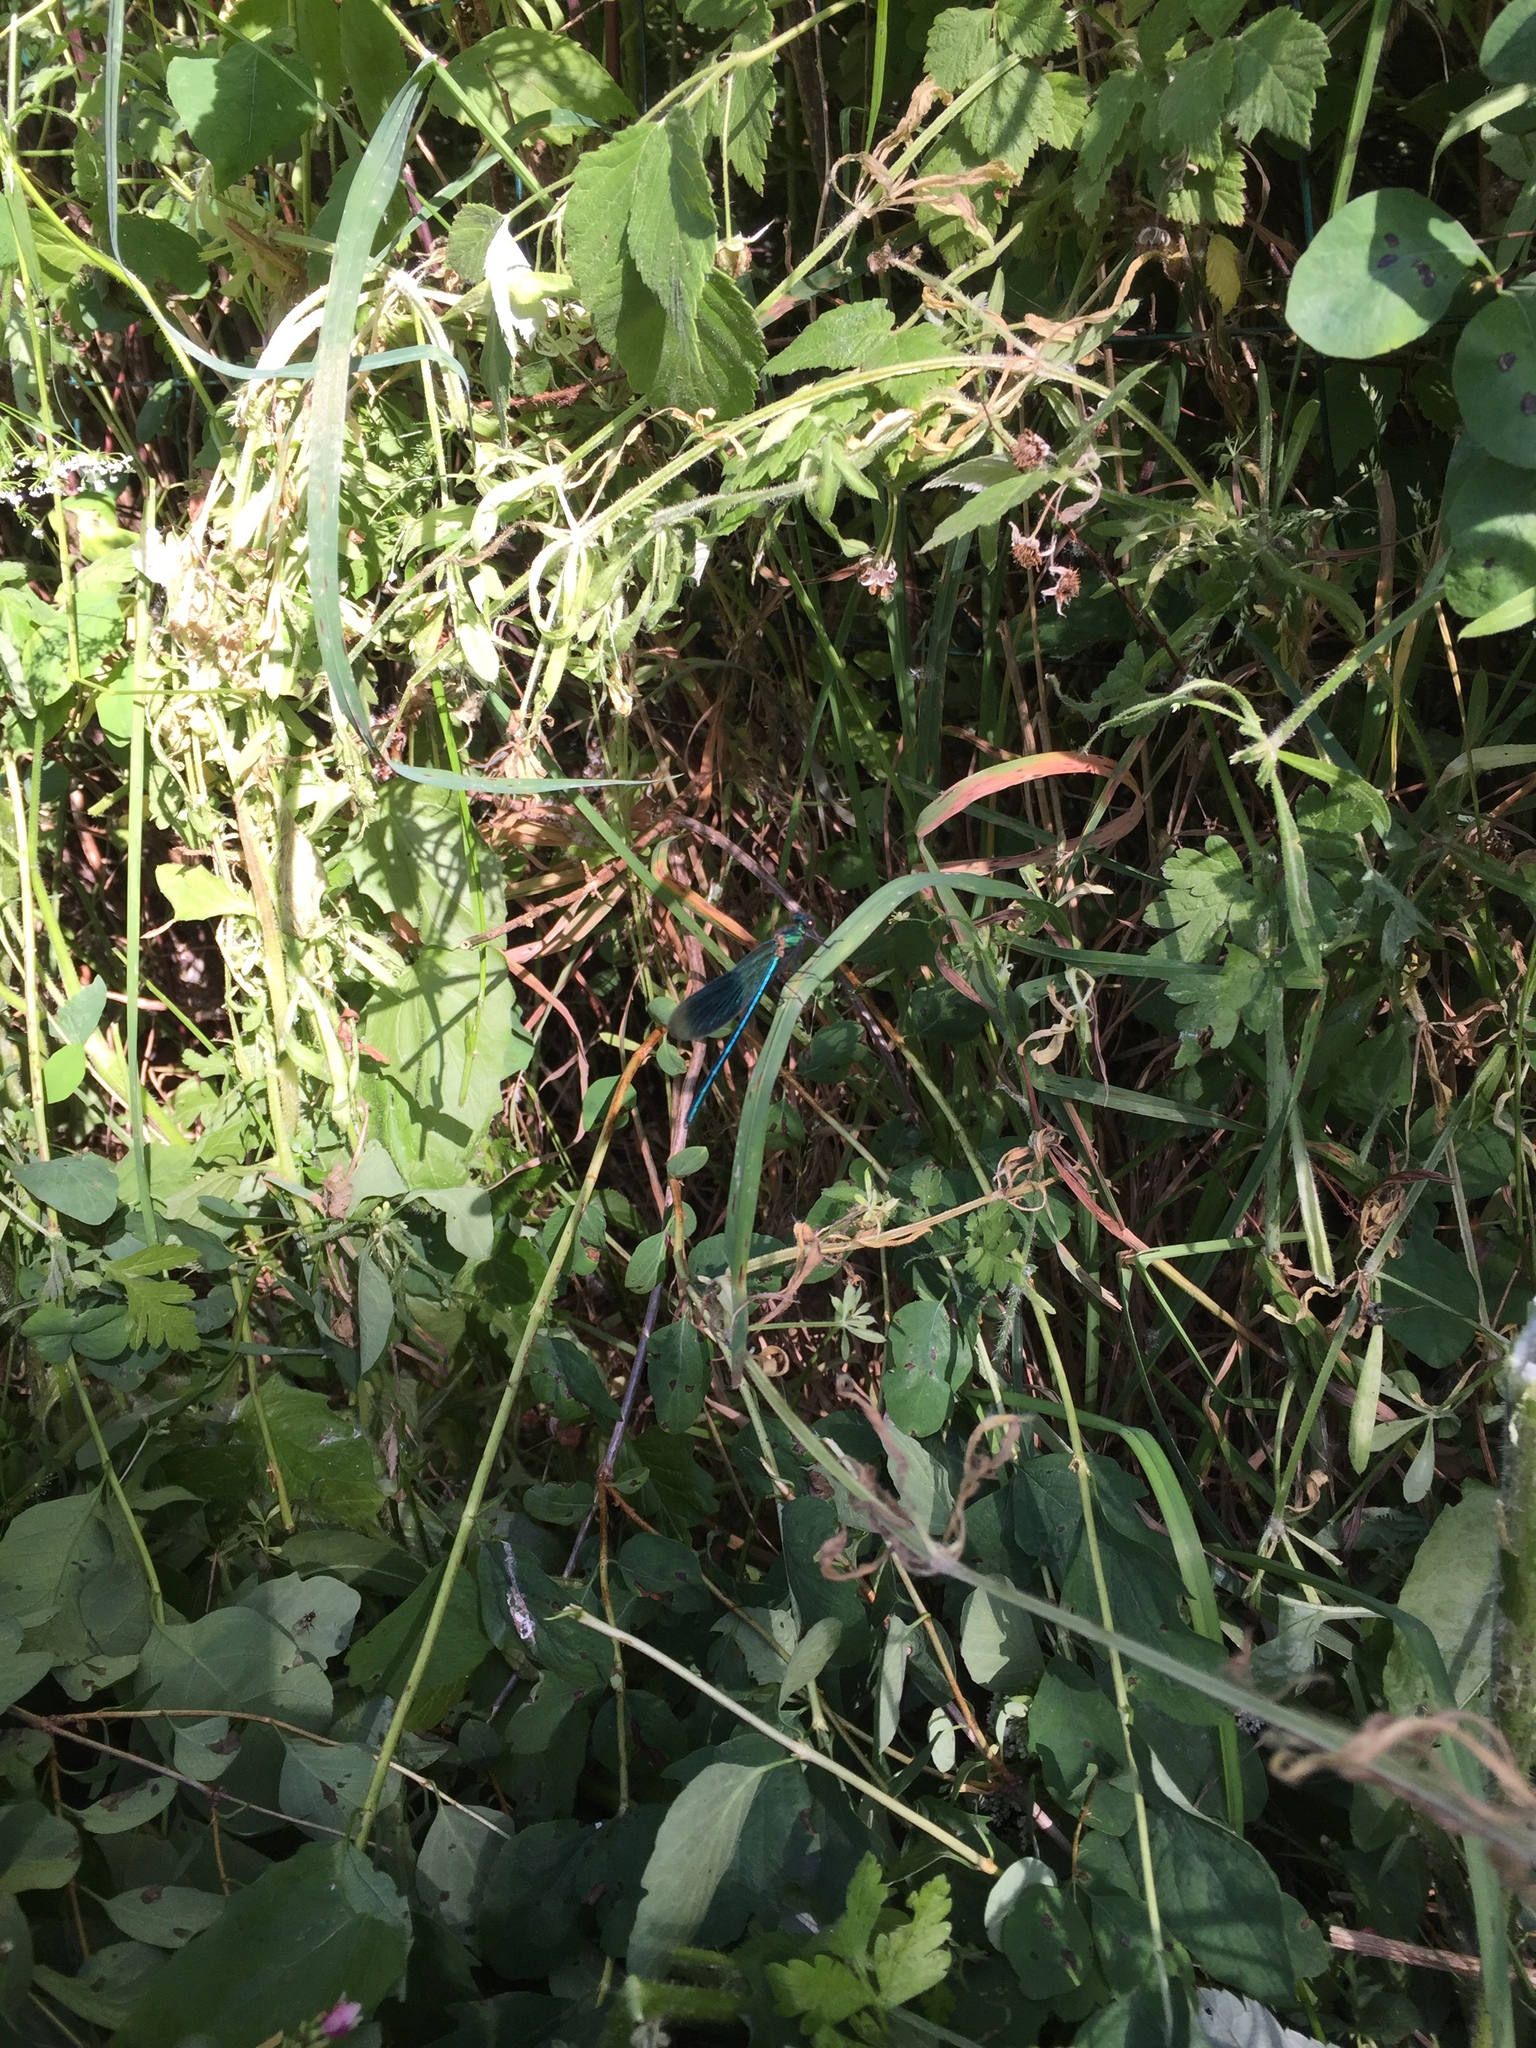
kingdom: Animalia
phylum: Arthropoda
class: Insecta
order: Odonata
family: Calopterygidae
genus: Calopteryx
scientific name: Calopteryx splendens
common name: Banded demoiselle
